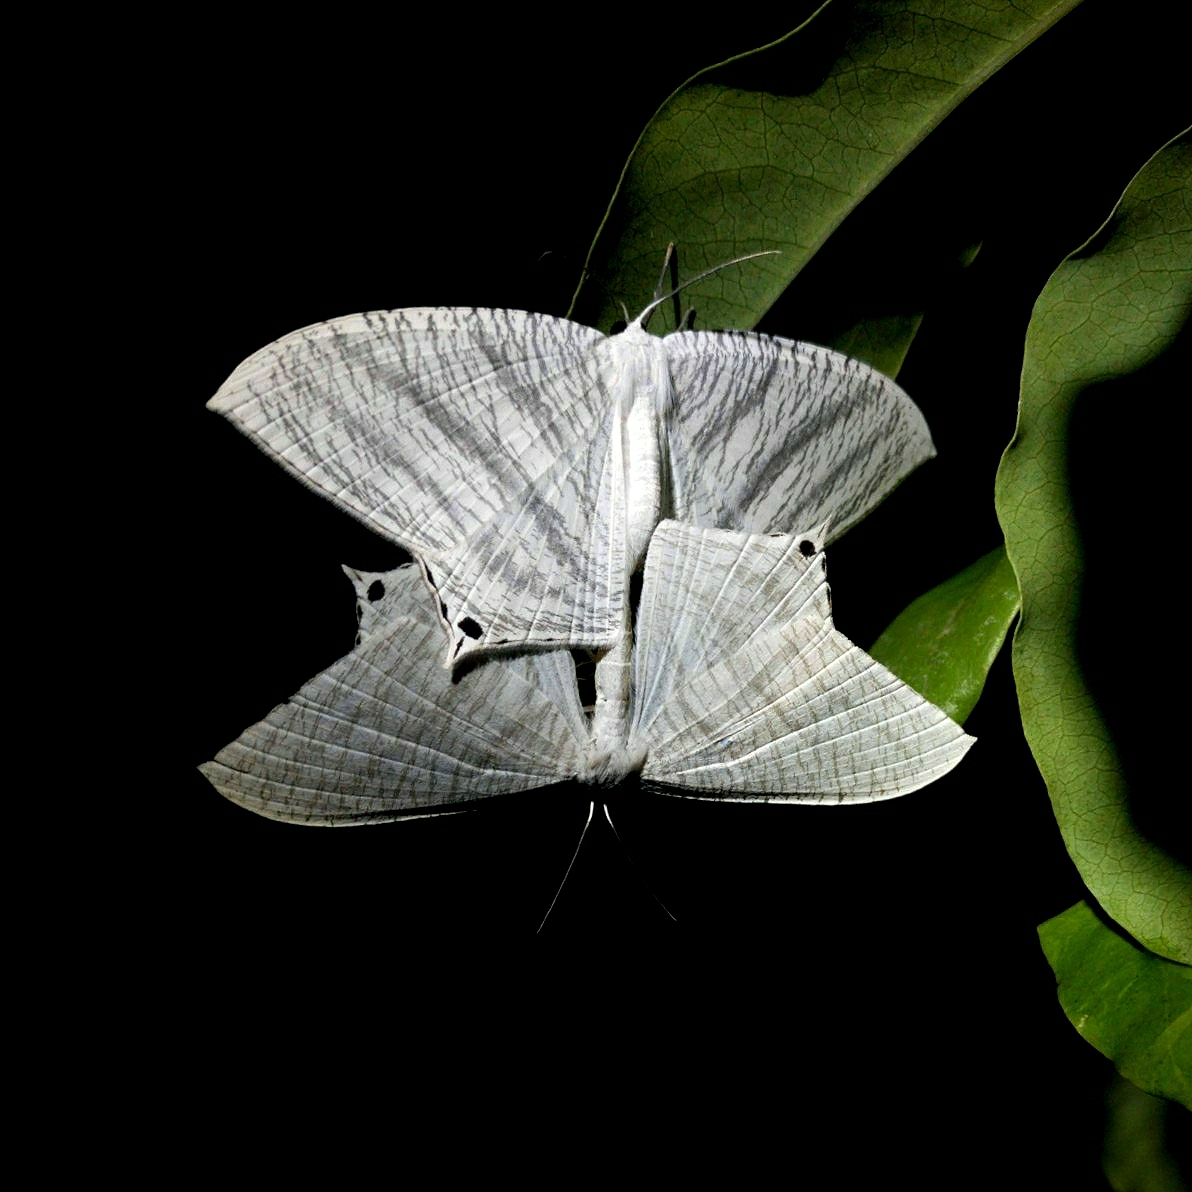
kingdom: Animalia
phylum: Arthropoda
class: Insecta
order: Lepidoptera
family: Uraniidae
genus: Micronia
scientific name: Micronia aculeata
